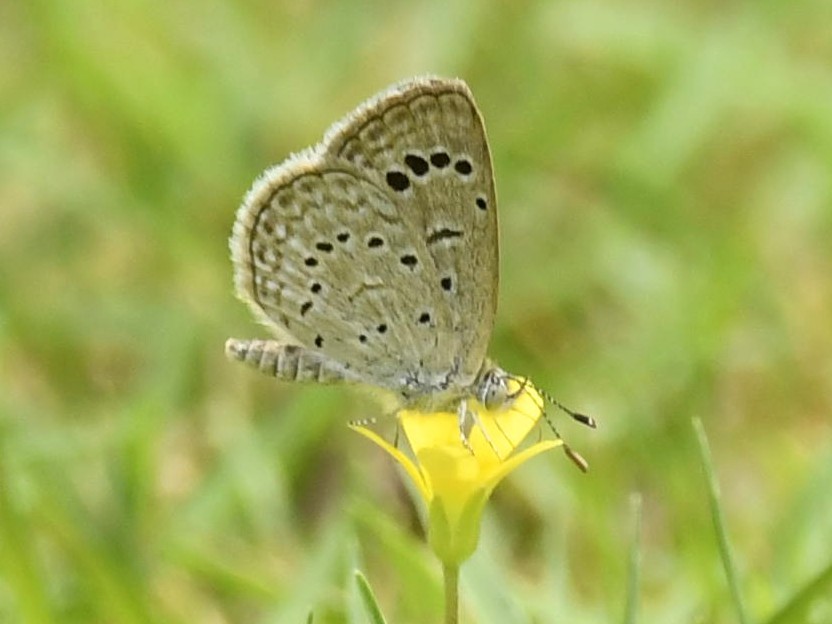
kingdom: Animalia
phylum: Arthropoda
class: Insecta
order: Lepidoptera
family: Lycaenidae
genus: Zizeeria
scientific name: Zizeeria karsandra
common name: Dark grass blue
